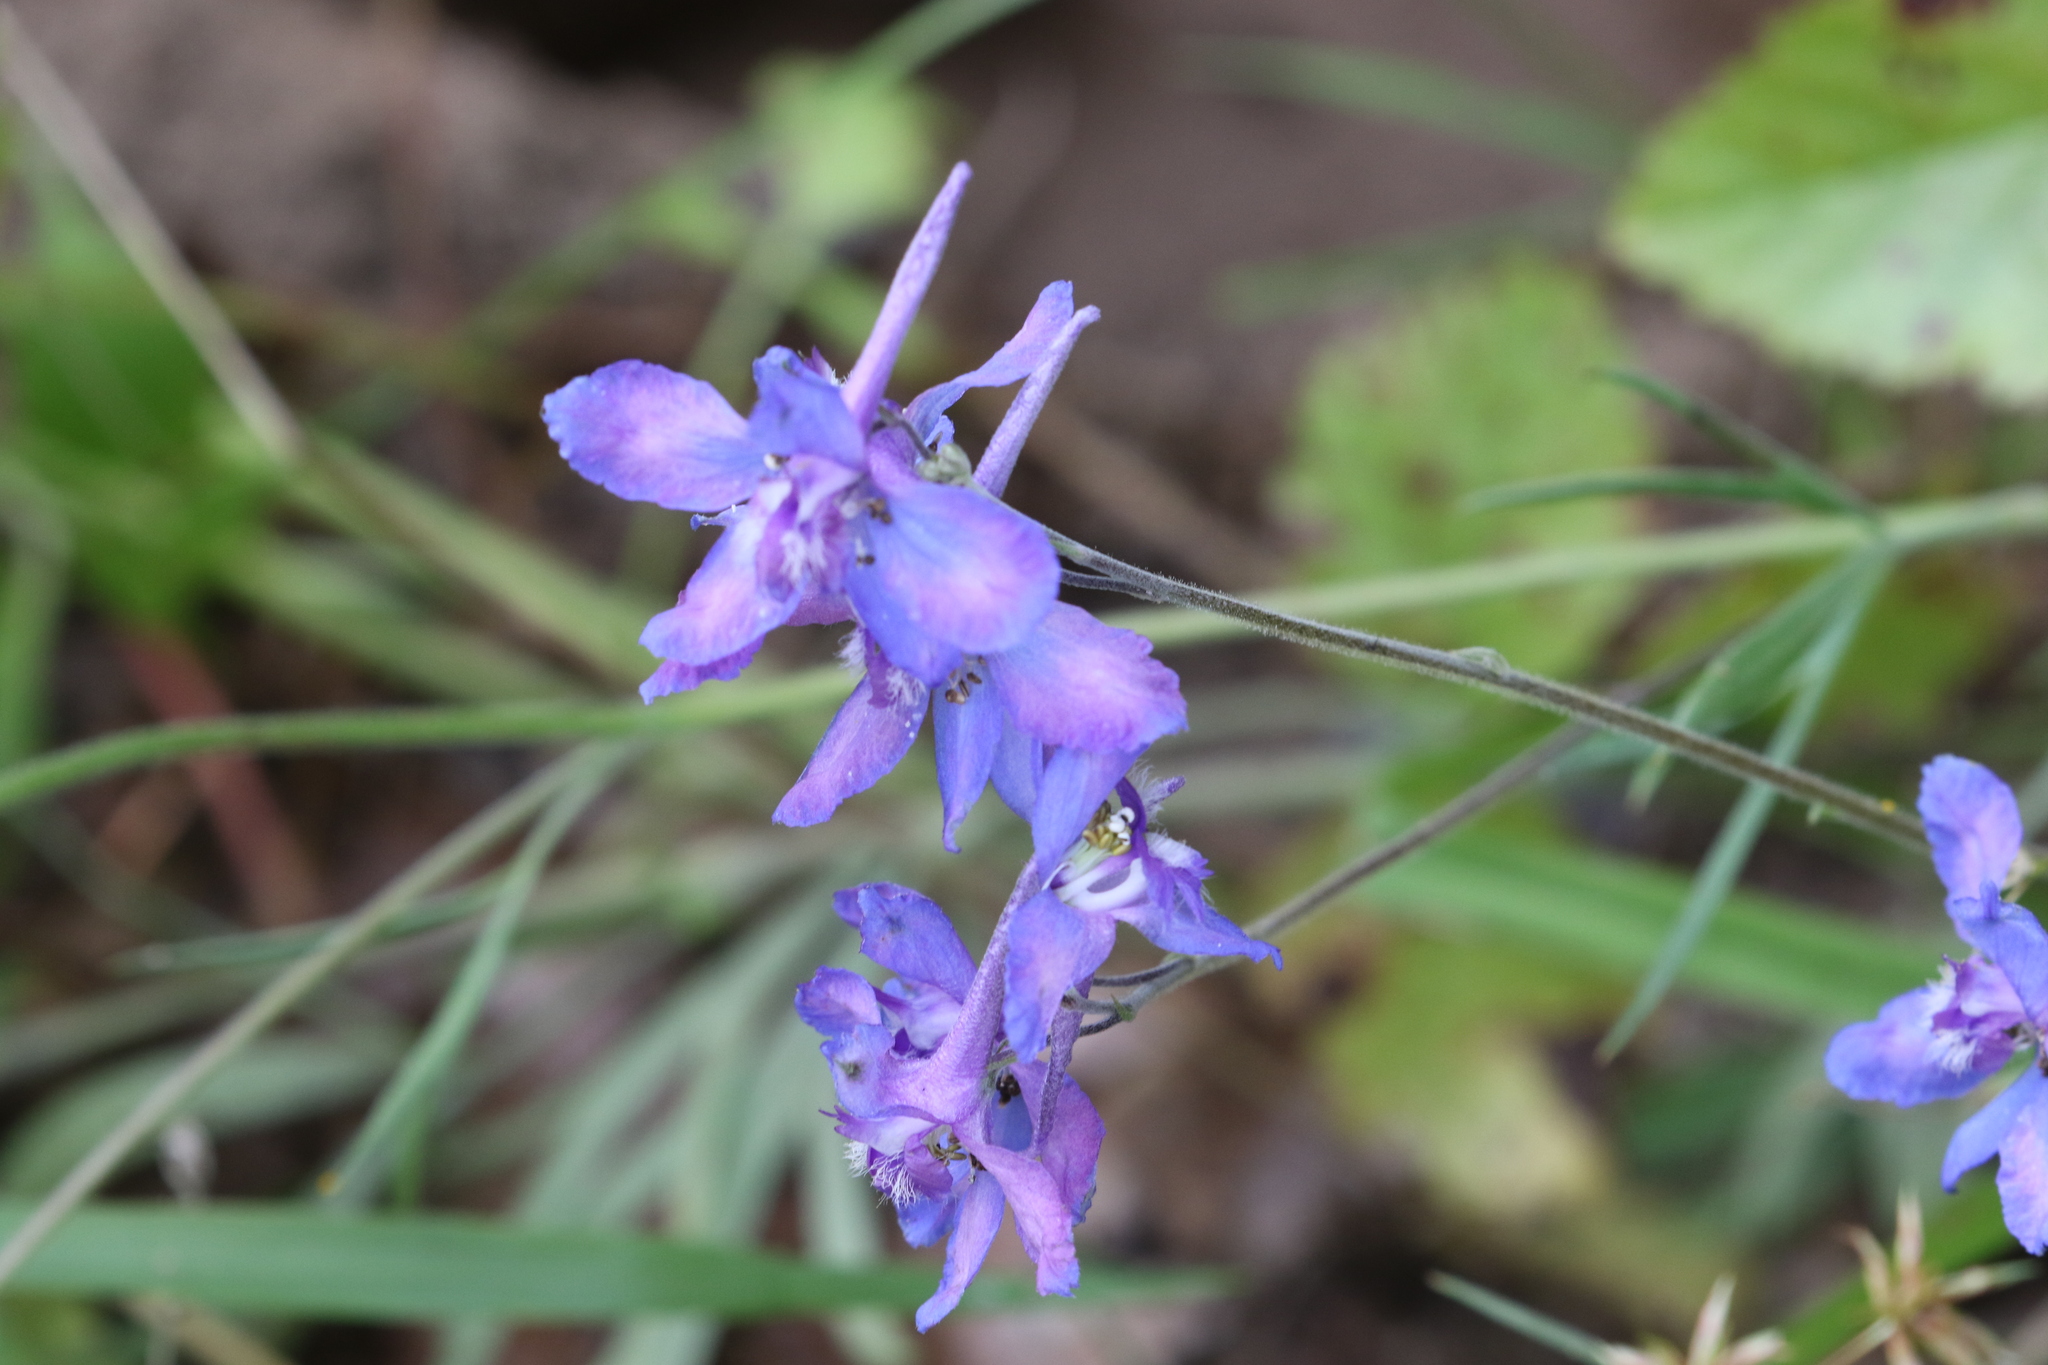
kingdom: Plantae
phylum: Tracheophyta
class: Magnoliopsida
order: Ranunculales
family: Ranunculaceae
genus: Delphinium
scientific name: Delphinium carolinianum
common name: Carolina larkspur
